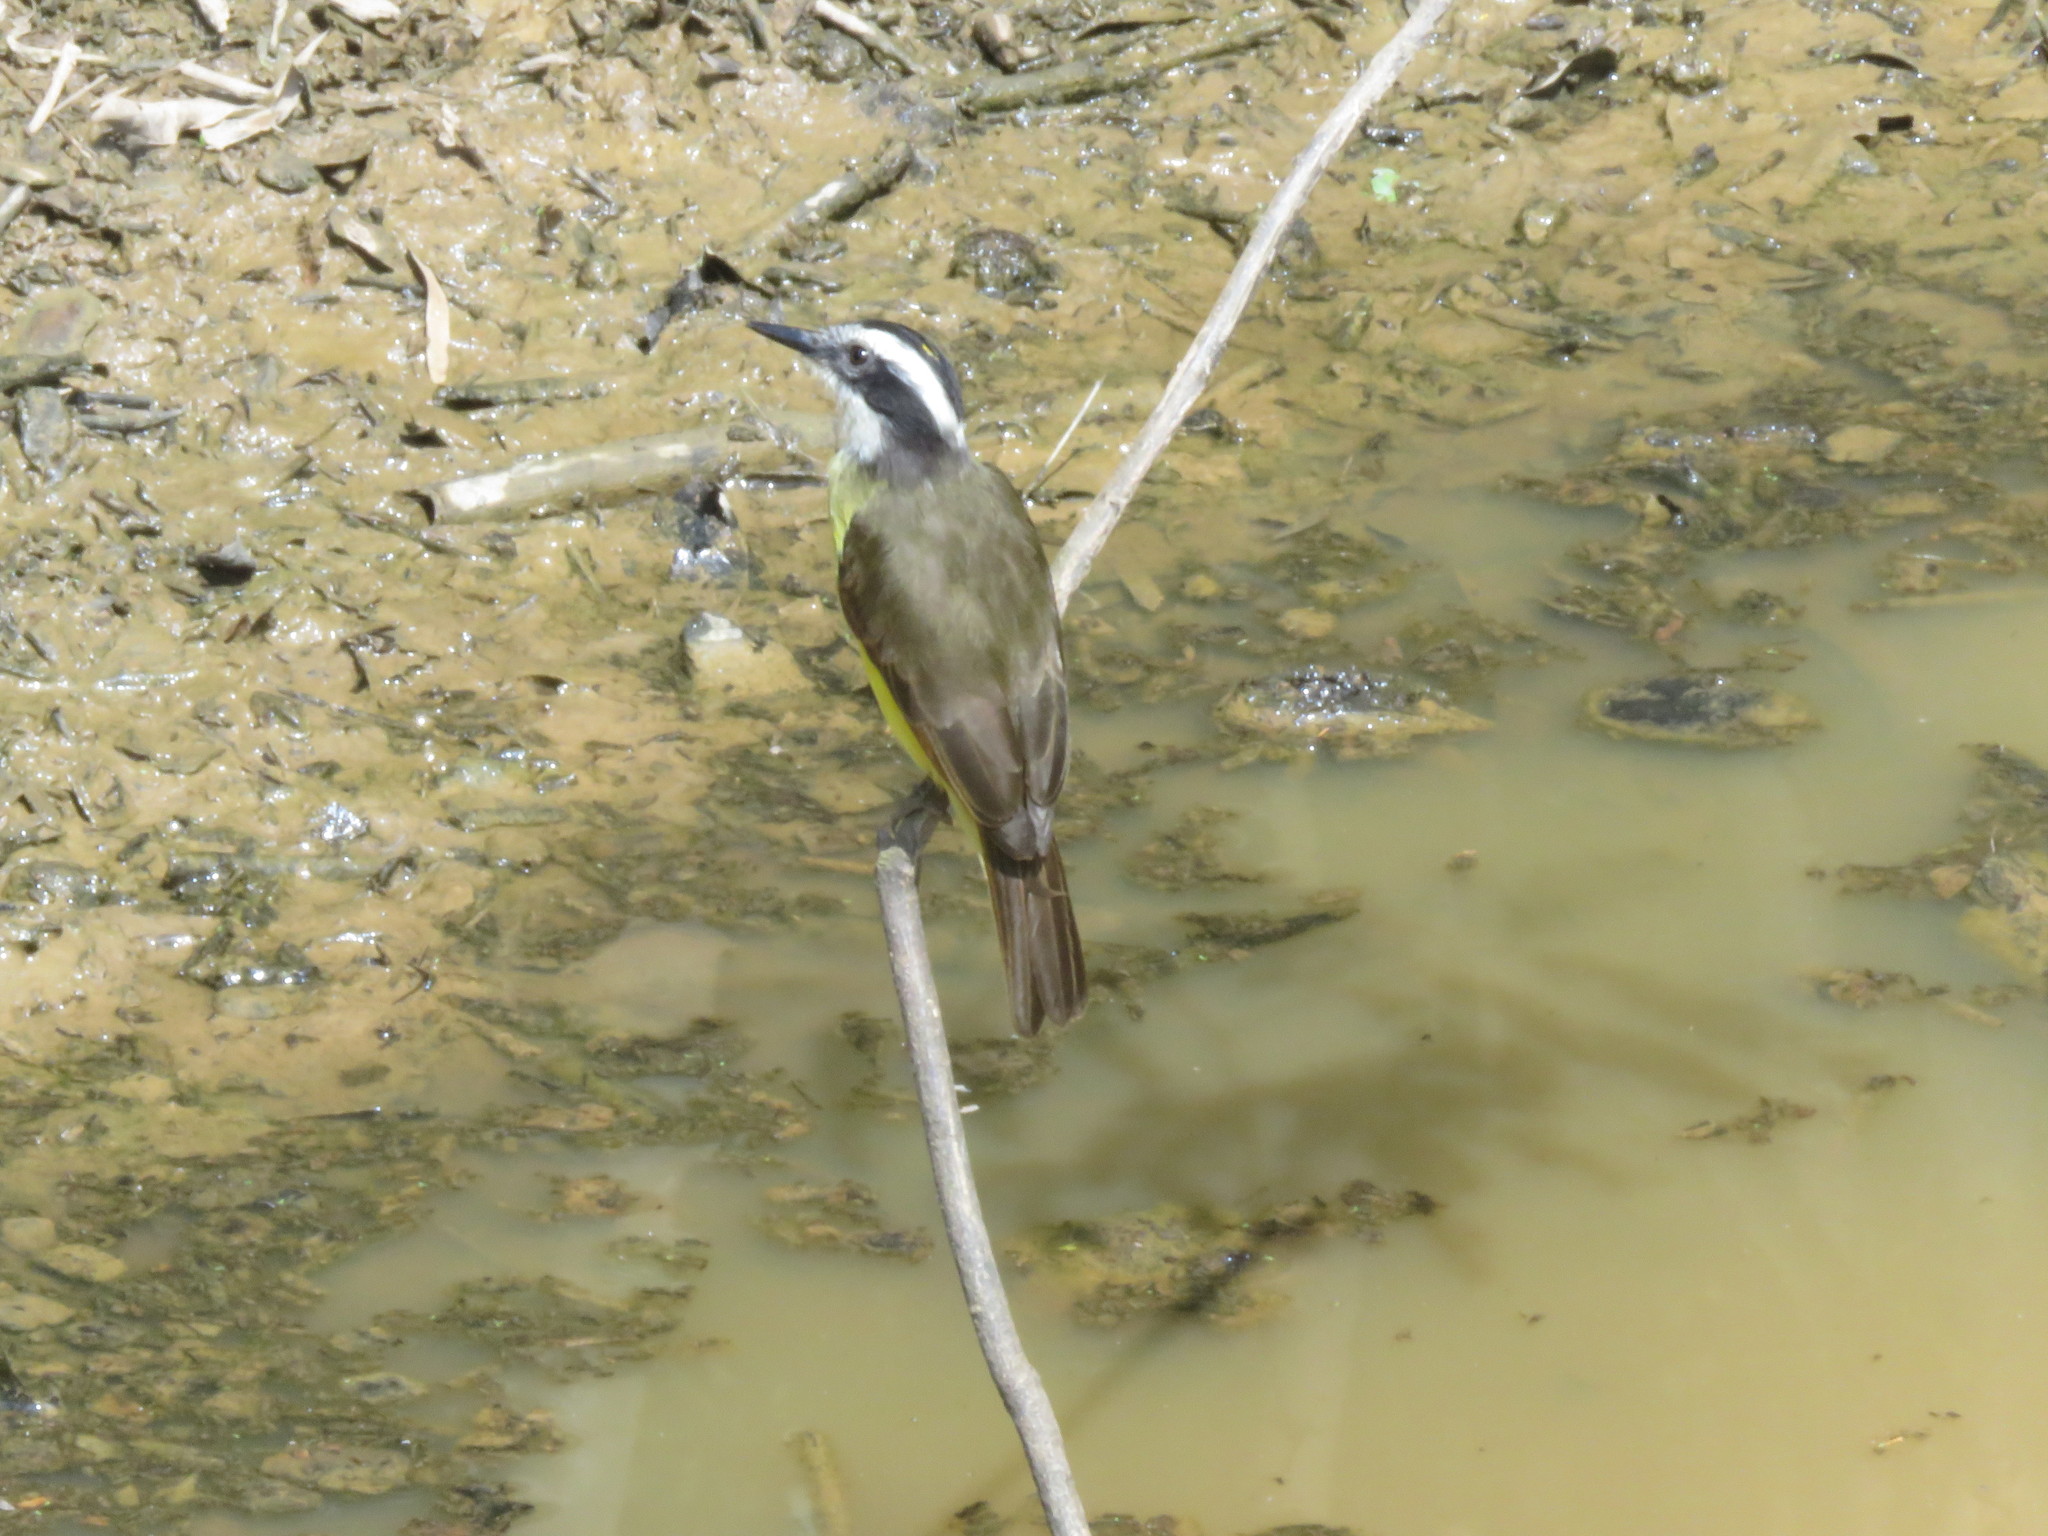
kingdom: Animalia
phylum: Chordata
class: Aves
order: Passeriformes
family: Tyrannidae
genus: Pitangus
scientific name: Pitangus lictor
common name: Lesser kiskadee
